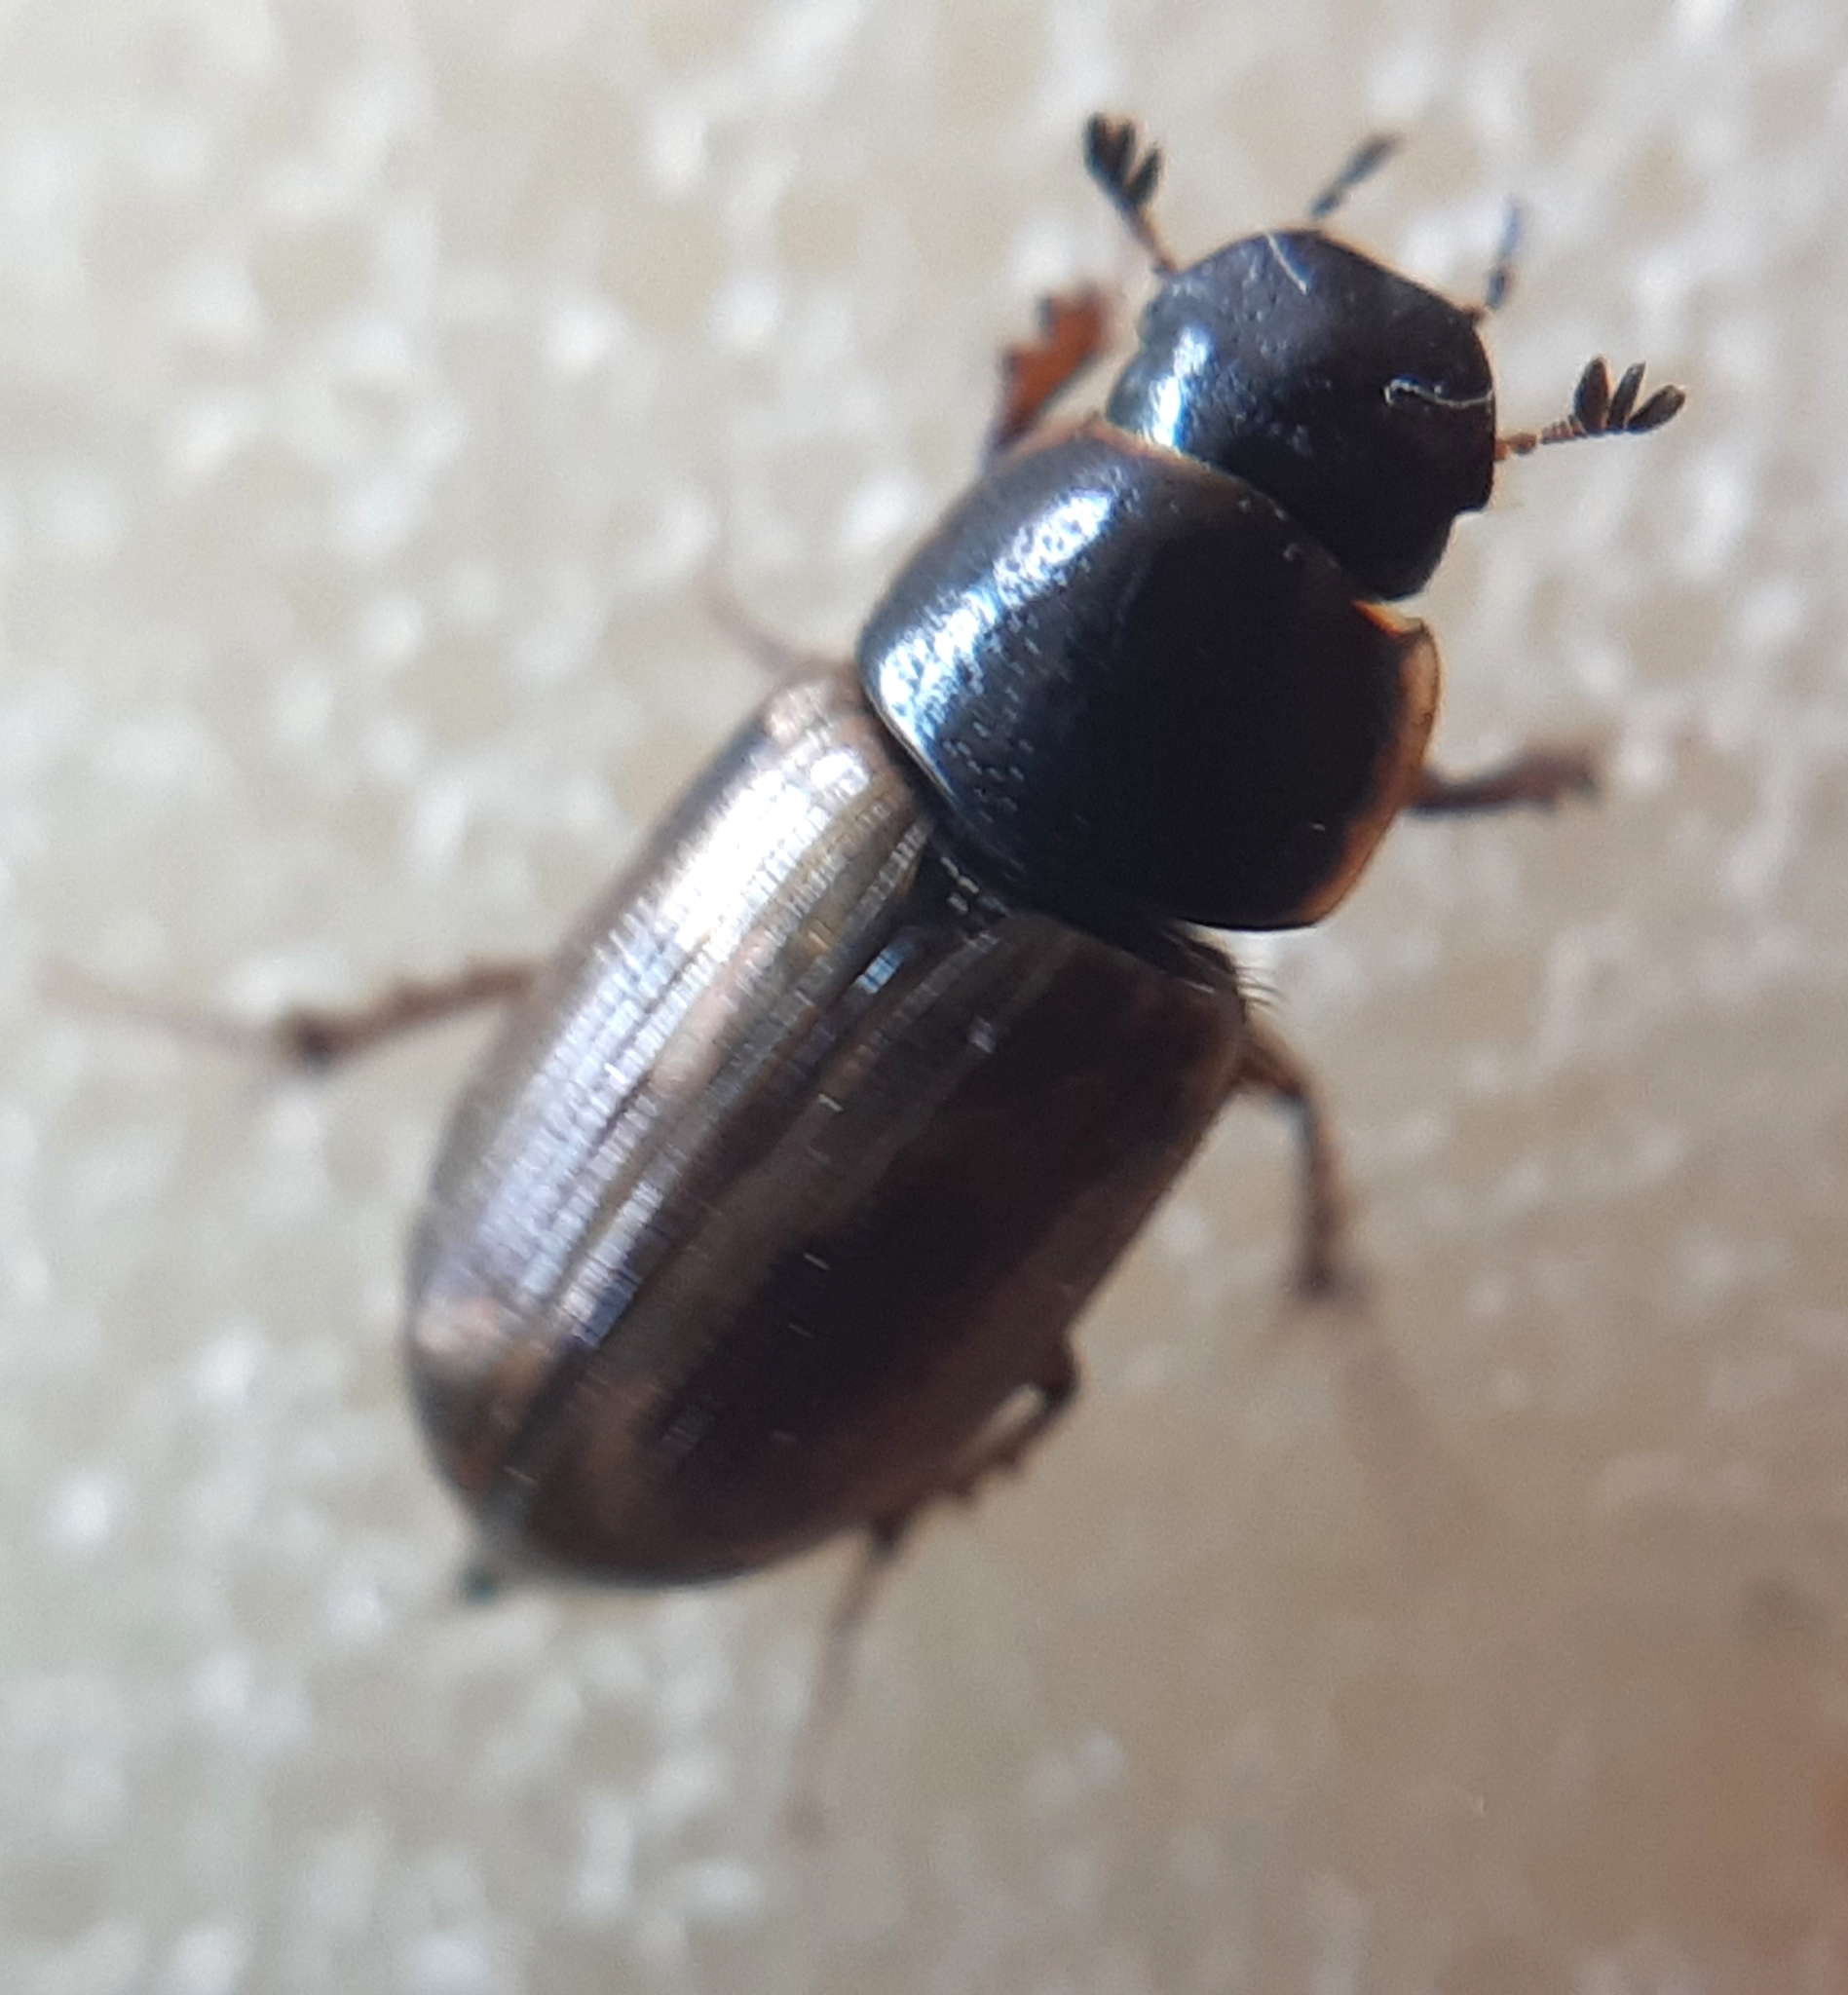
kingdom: Animalia
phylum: Arthropoda
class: Insecta
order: Coleoptera
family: Scarabaeidae
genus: Melinopterus
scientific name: Melinopterus prodromus
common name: Spring small dung beetle
